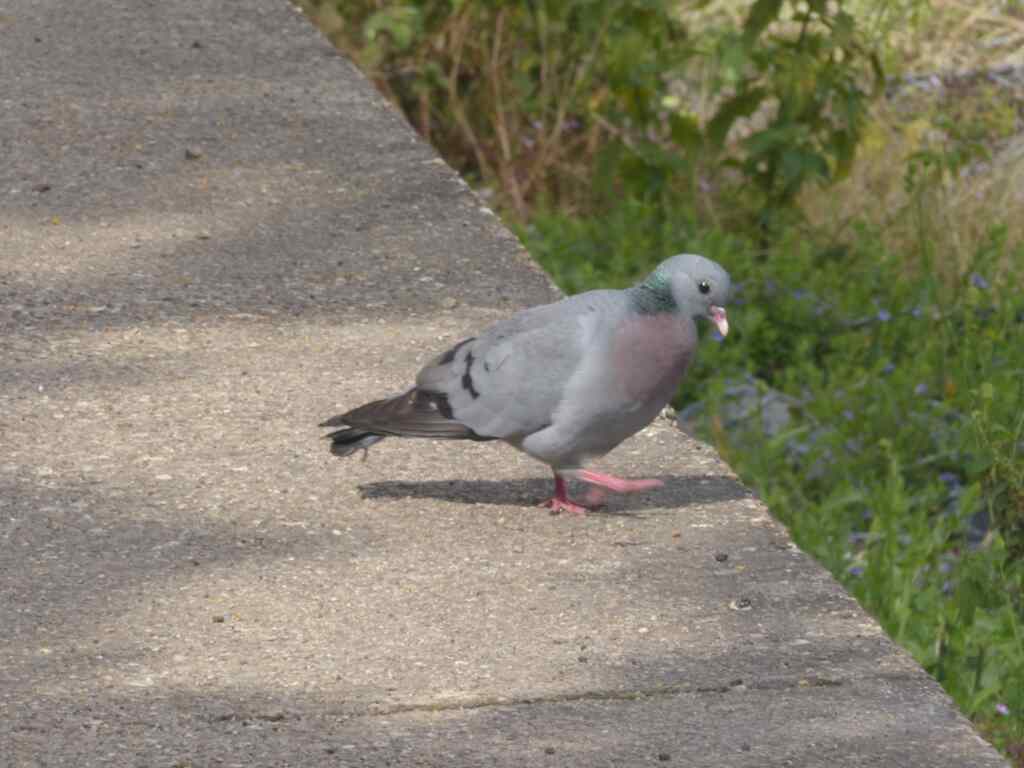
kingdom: Animalia
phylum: Chordata
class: Aves
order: Columbiformes
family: Columbidae
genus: Columba
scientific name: Columba oenas
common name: Stock dove
